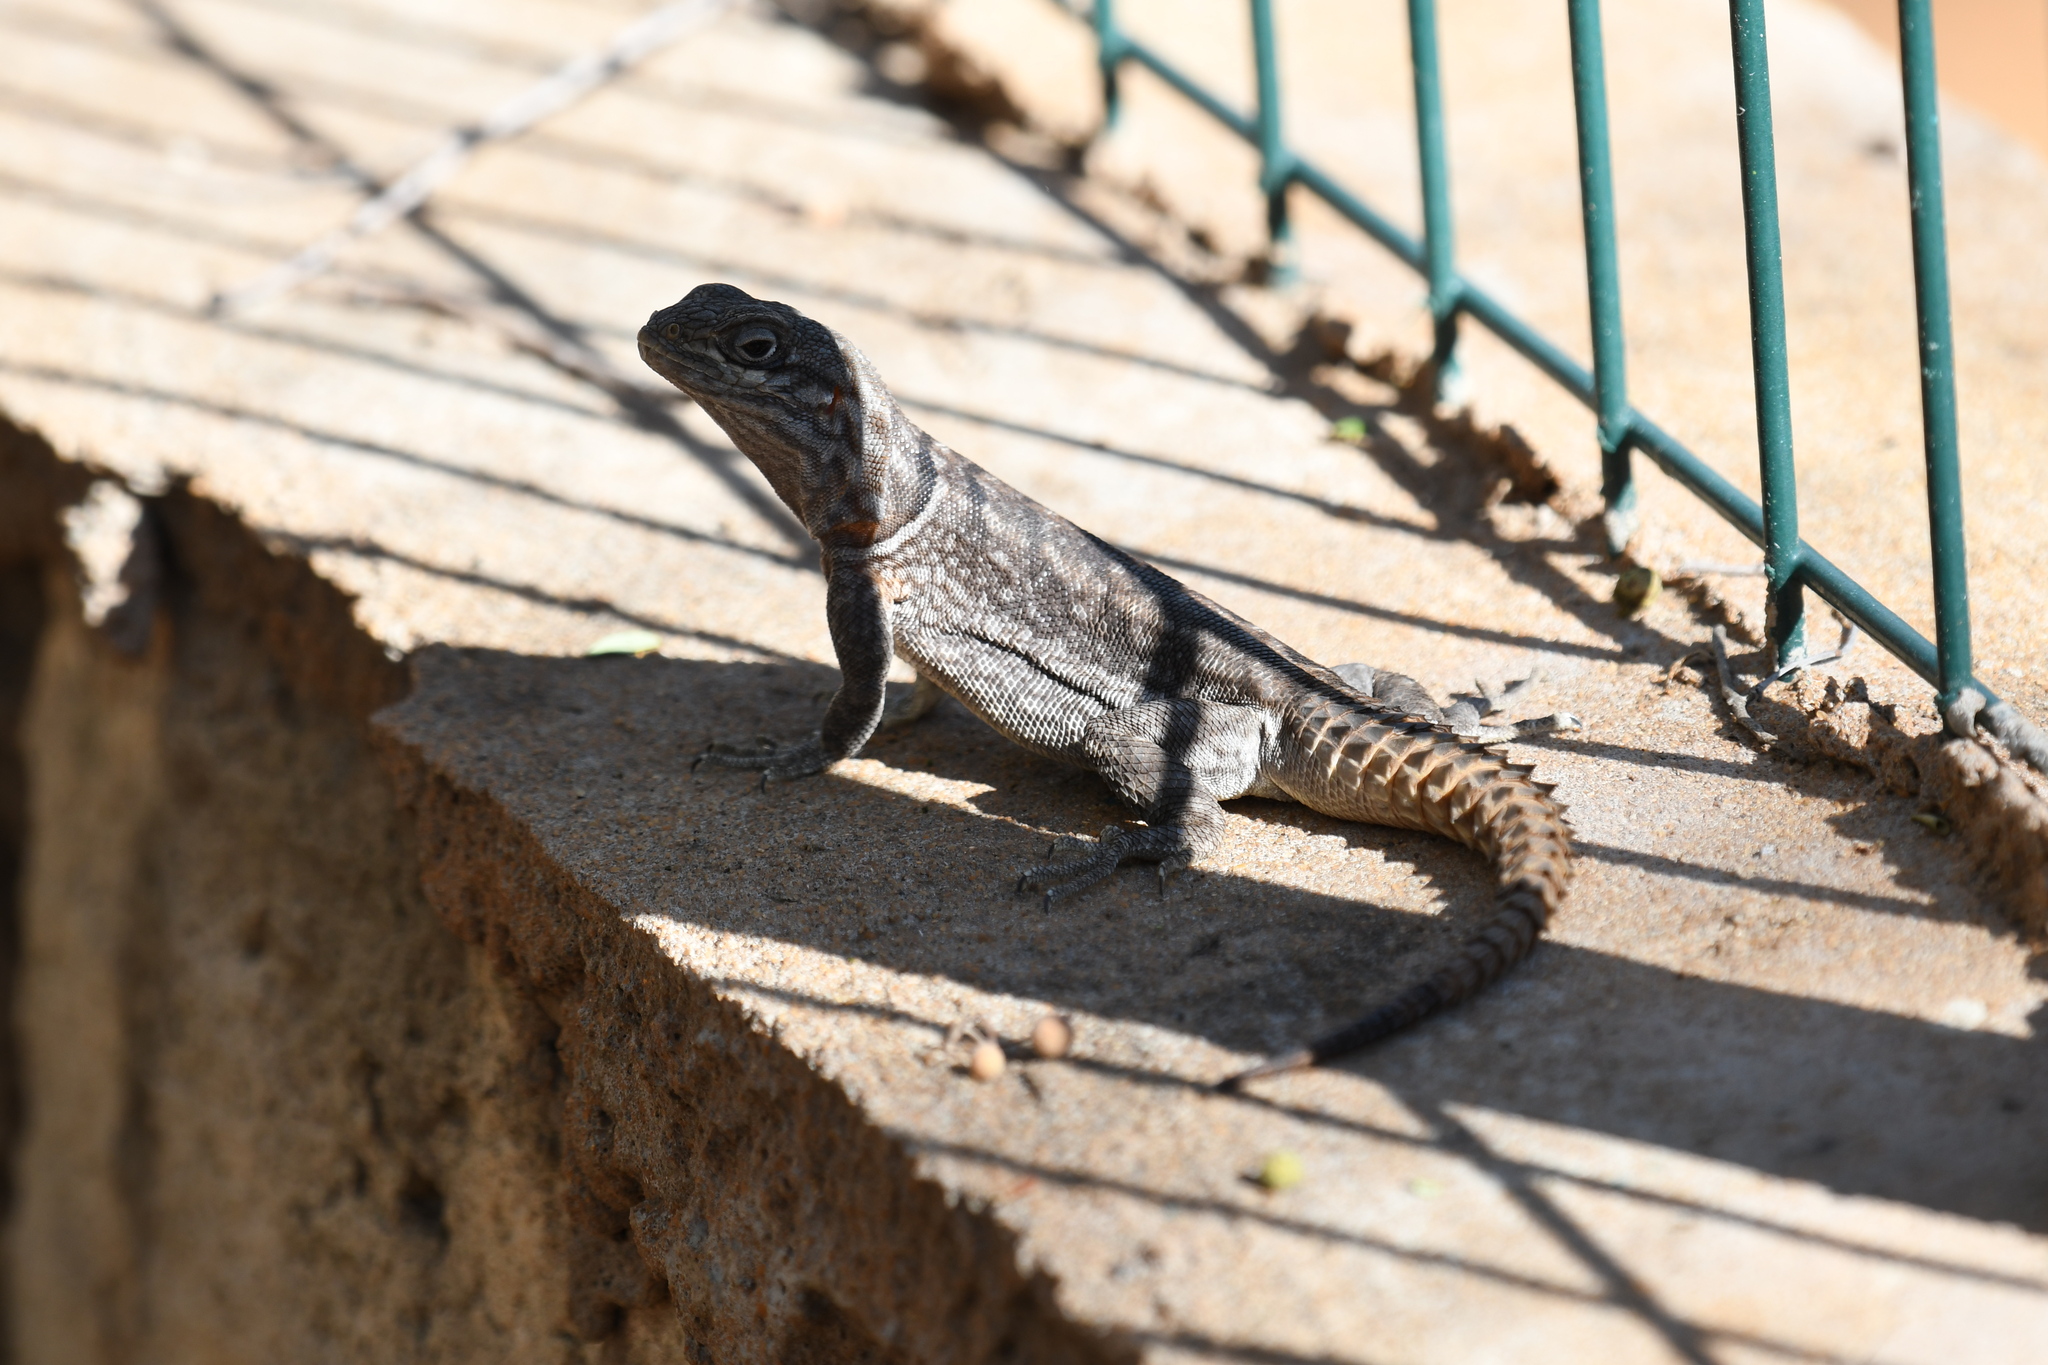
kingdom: Animalia
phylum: Chordata
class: Squamata
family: Opluridae
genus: Oplurus
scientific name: Oplurus cyclurus
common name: Merrem's madagascar swift
